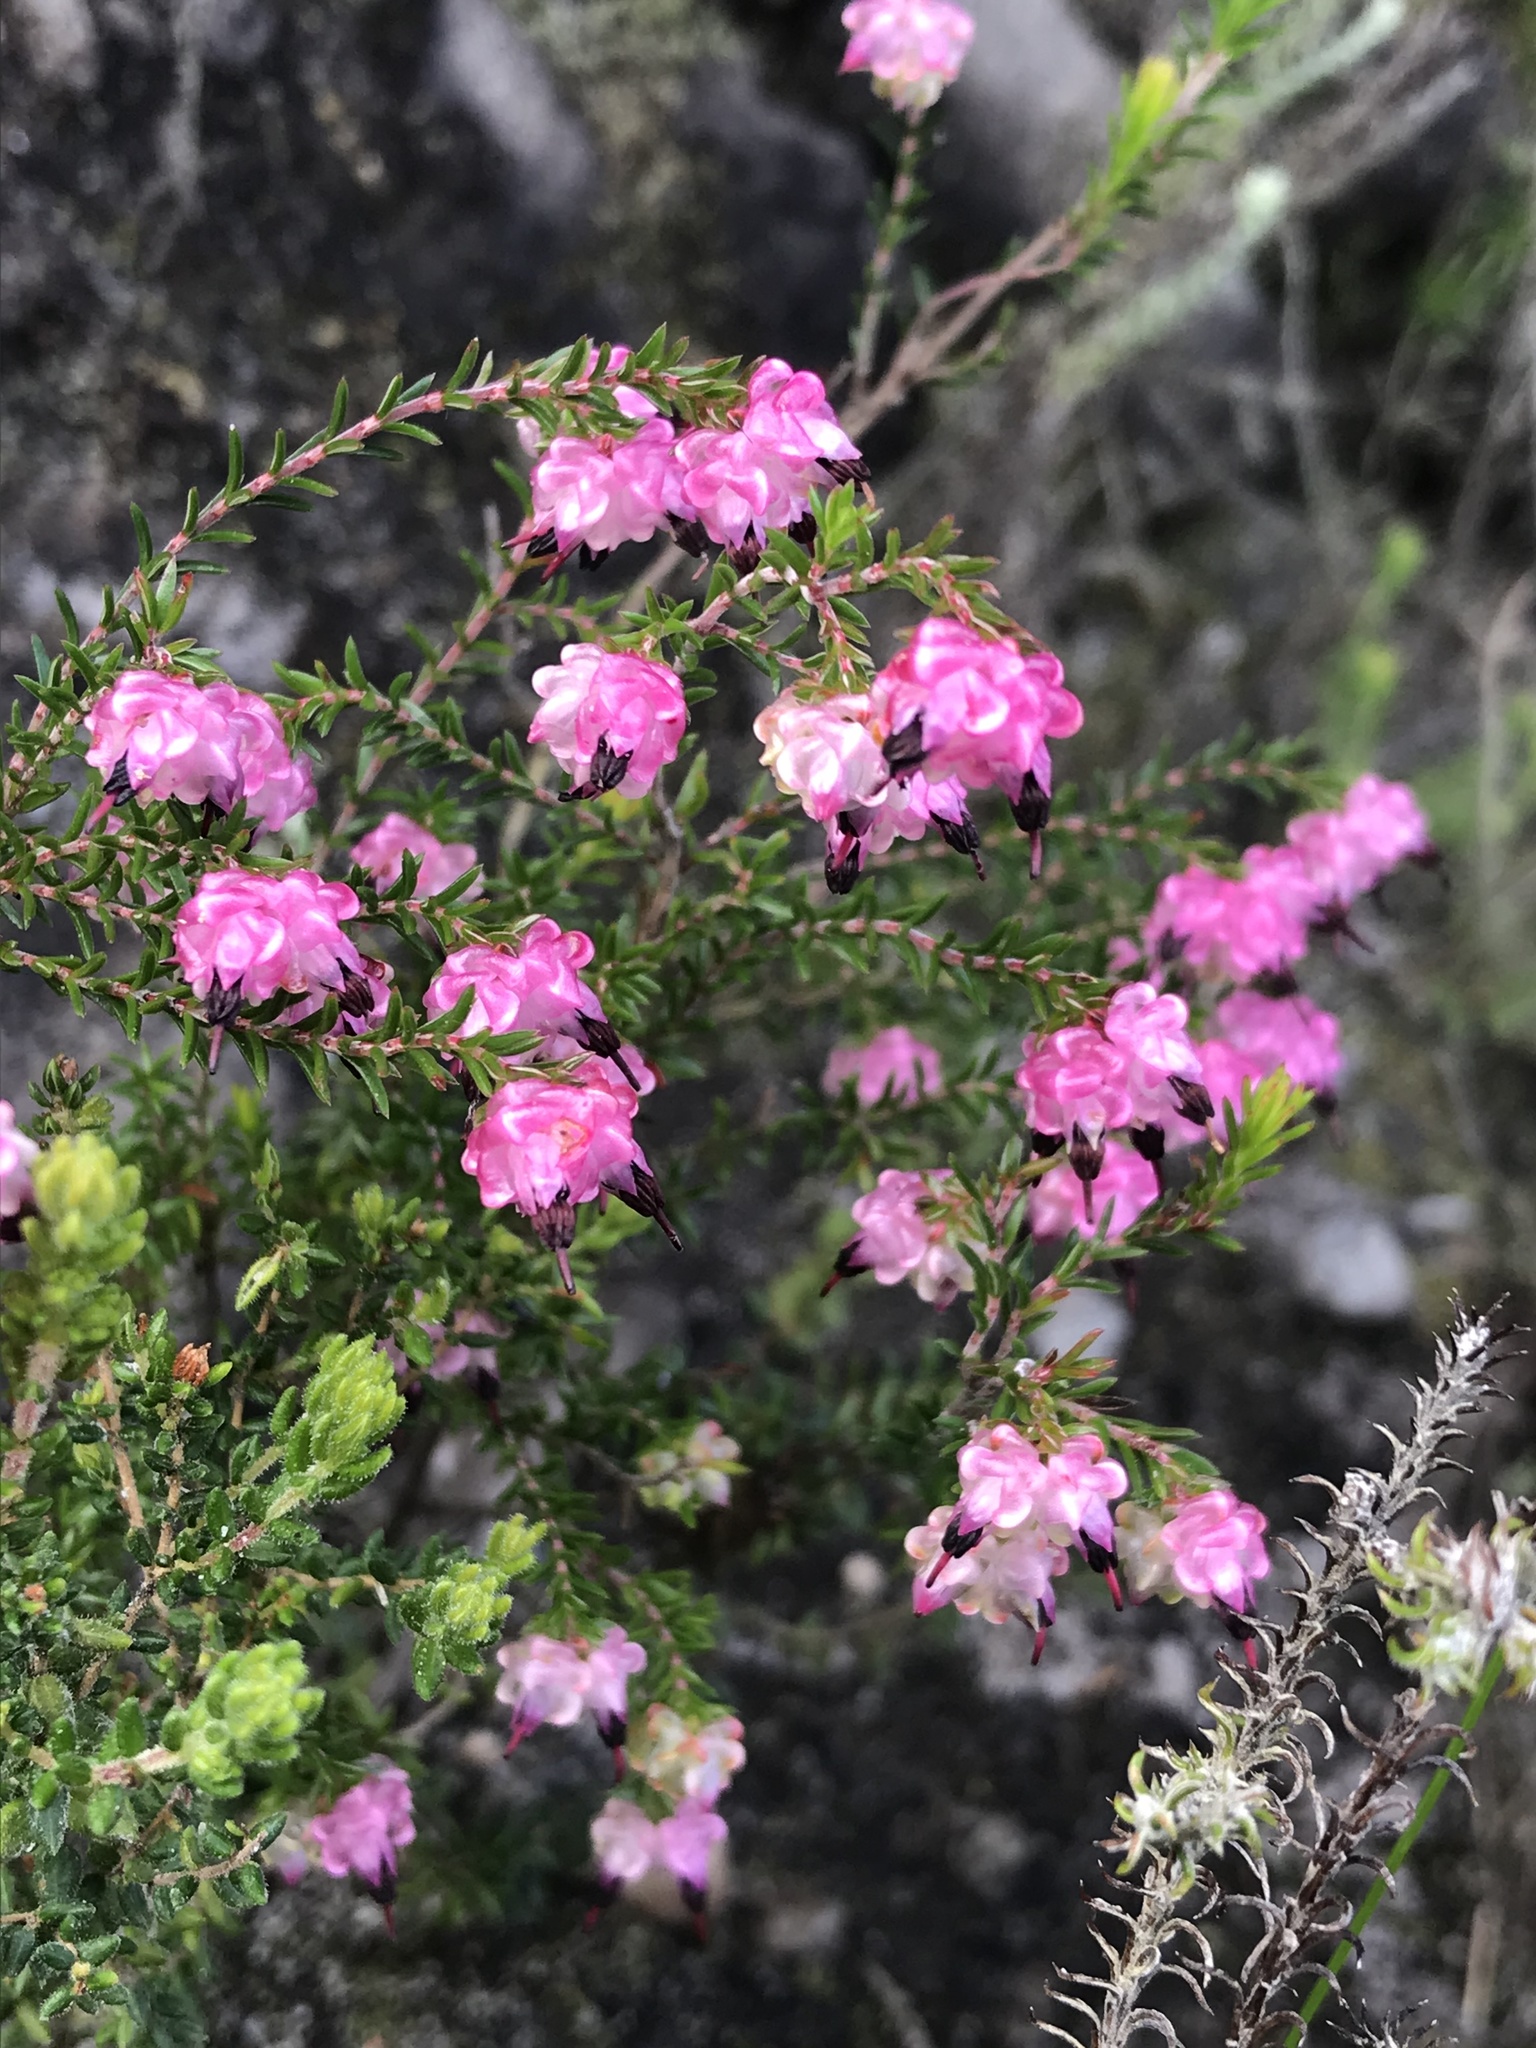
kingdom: Plantae
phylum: Tracheophyta
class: Magnoliopsida
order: Ericales
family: Ericaceae
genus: Erica
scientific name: Erica spumosa
